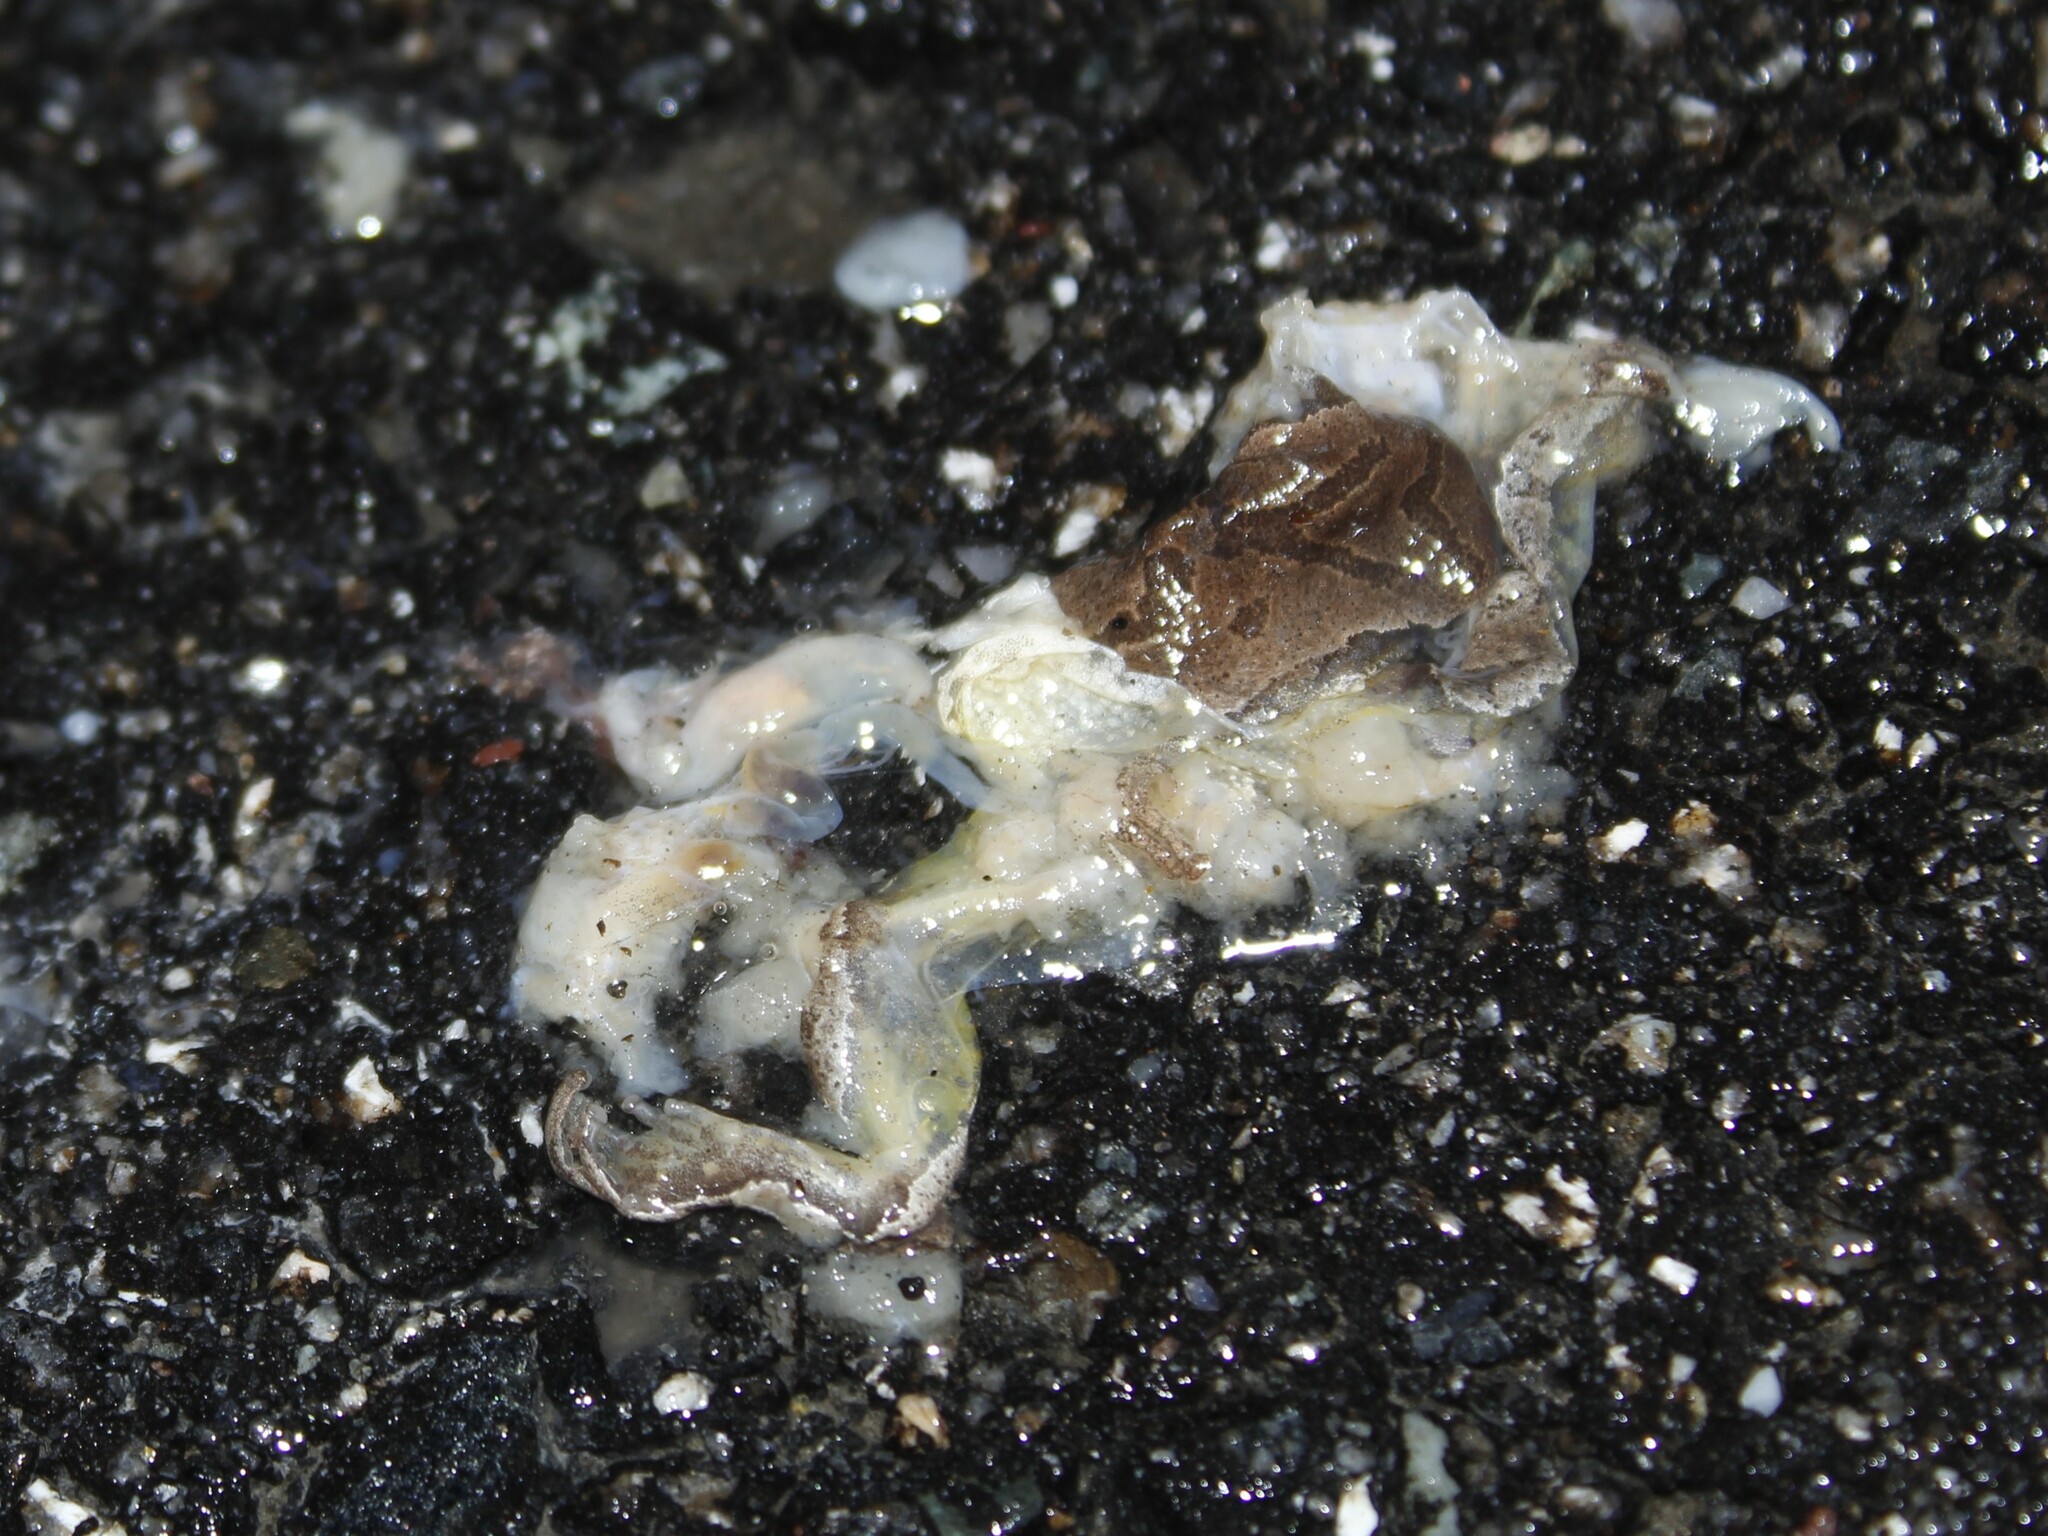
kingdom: Animalia
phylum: Chordata
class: Amphibia
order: Anura
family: Hylidae
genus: Pseudacris
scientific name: Pseudacris crucifer
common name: Spring peeper
